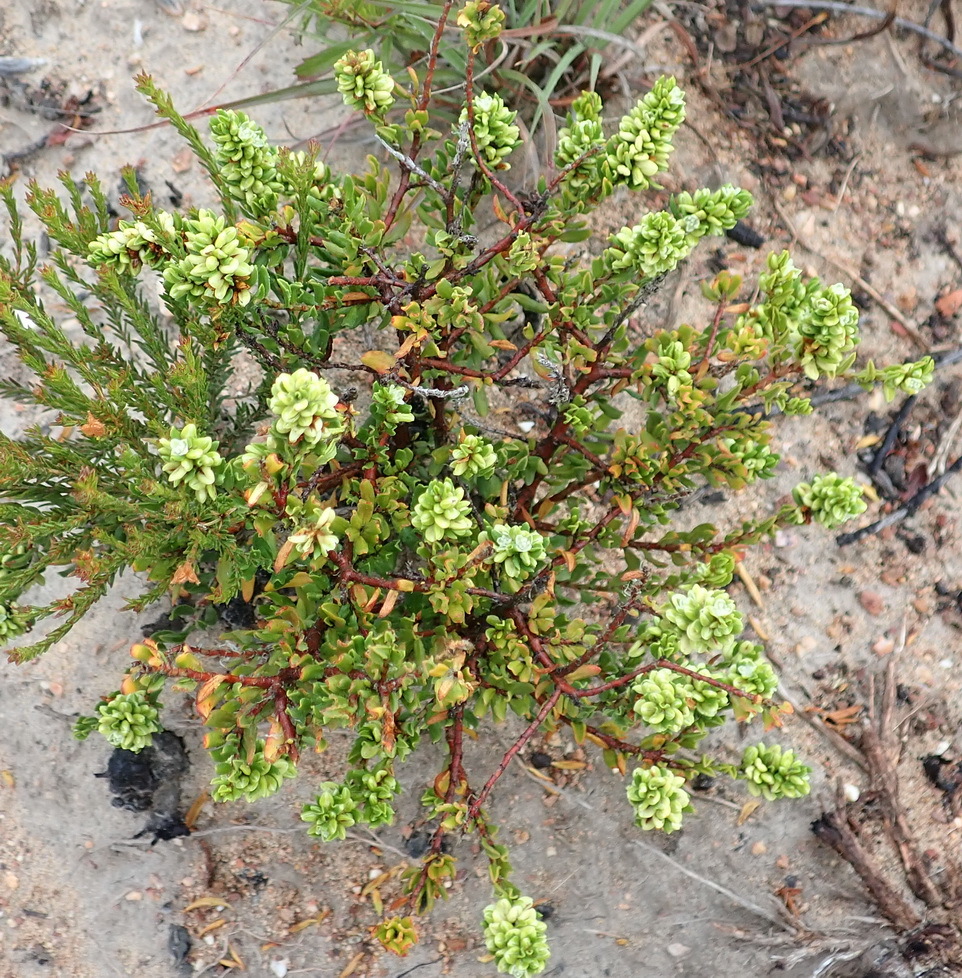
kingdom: Plantae
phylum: Tracheophyta
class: Magnoliopsida
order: Caryophyllales
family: Polygonaceae
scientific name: Polygonaceae
